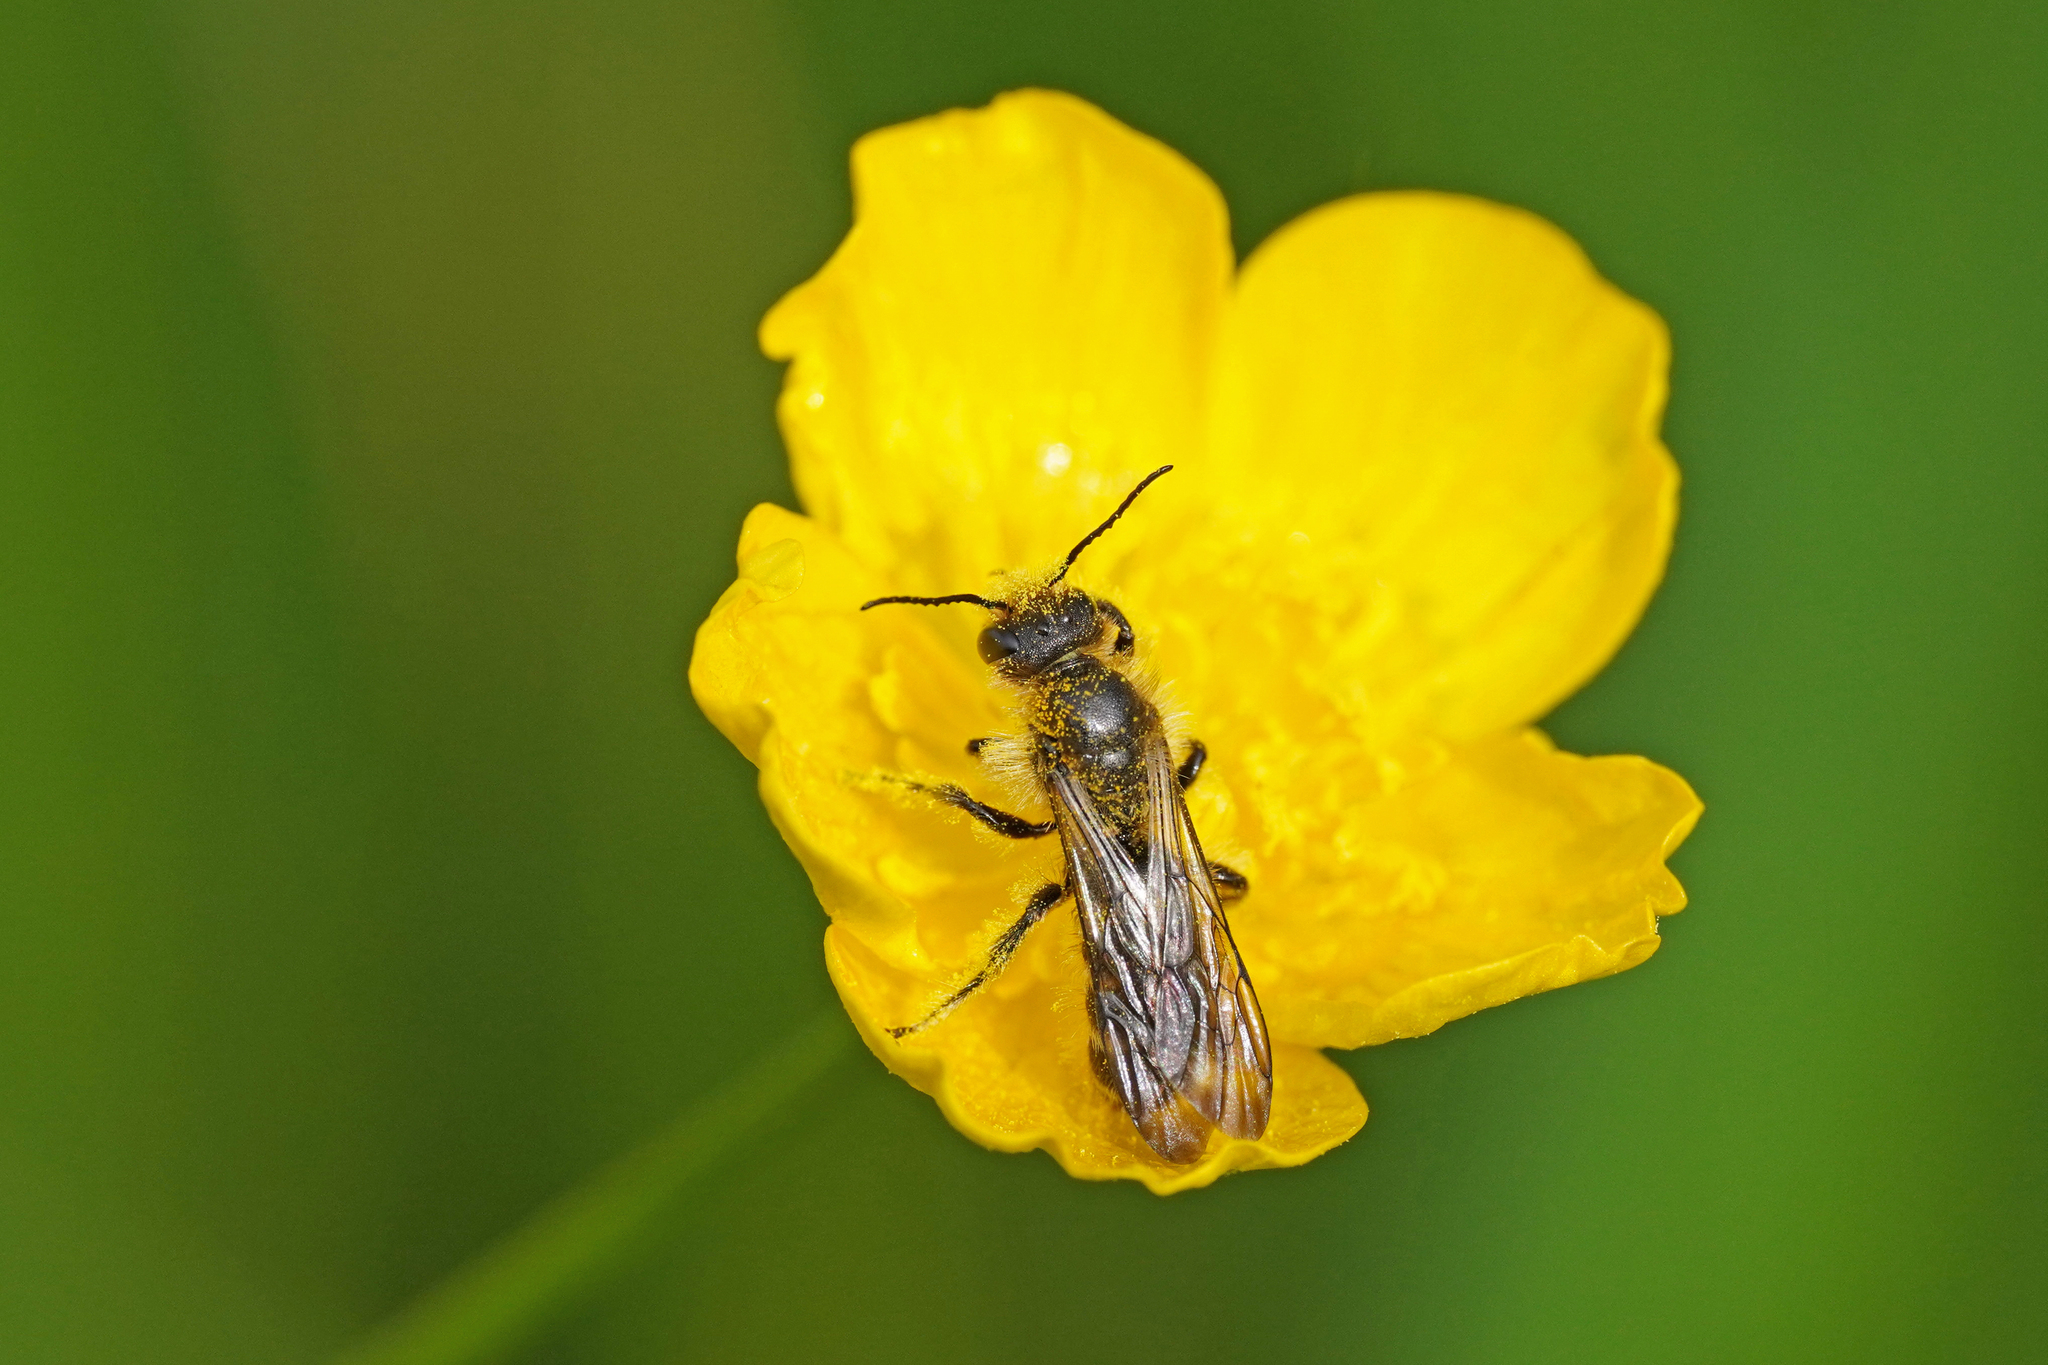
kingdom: Animalia
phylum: Arthropoda
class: Insecta
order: Hymenoptera
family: Megachilidae
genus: Chelostoma
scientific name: Chelostoma florisomne
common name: Sleepy carpenter bee
